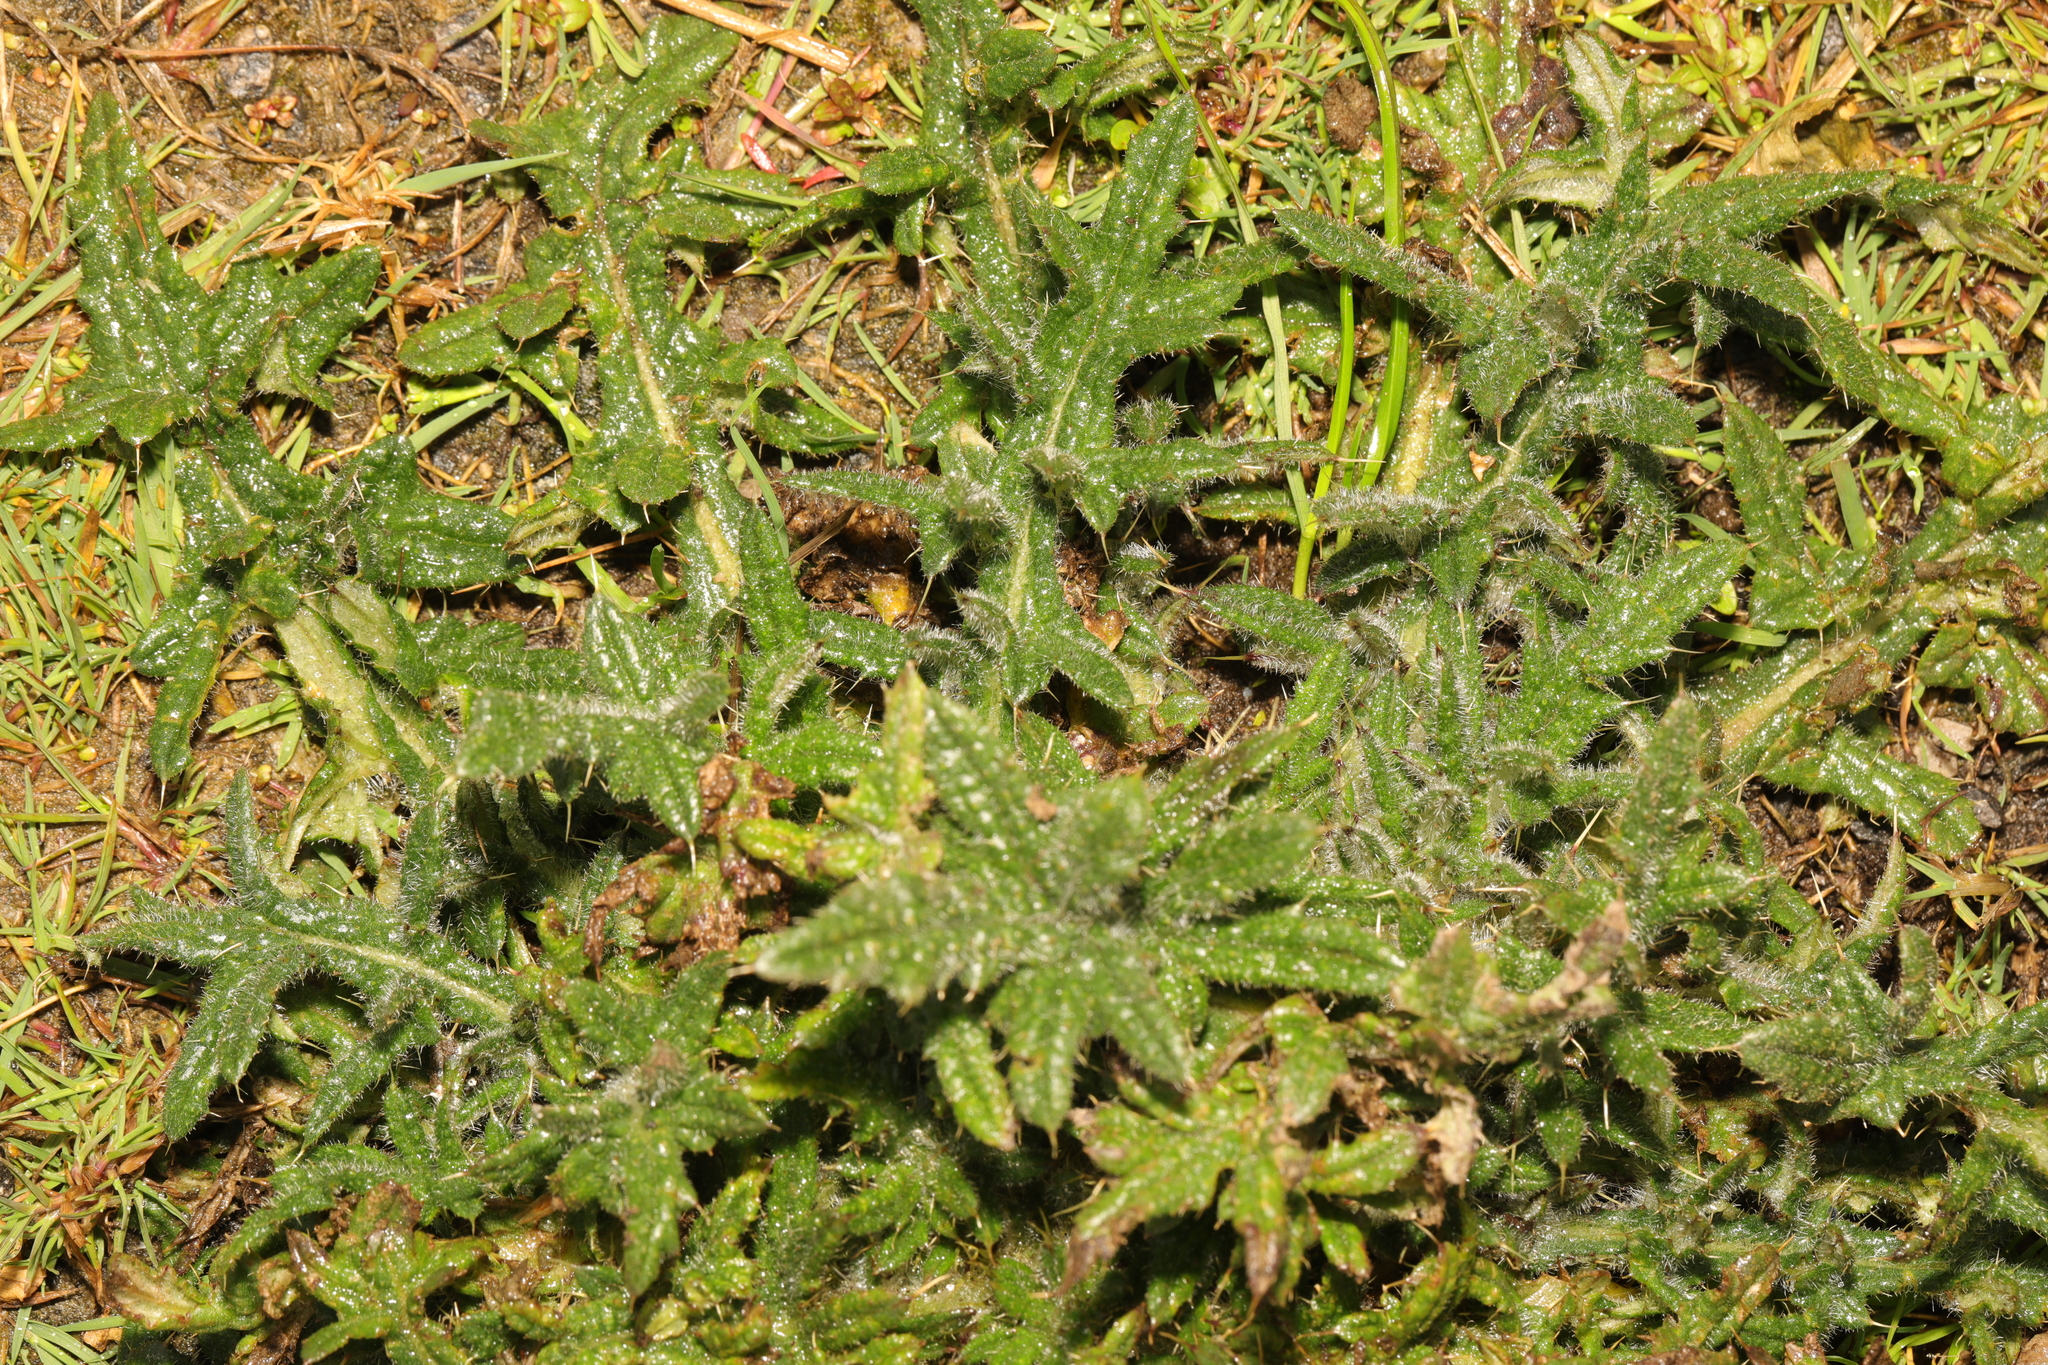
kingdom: Plantae
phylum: Tracheophyta
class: Magnoliopsida
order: Asterales
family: Asteraceae
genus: Cirsium
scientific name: Cirsium vulgare
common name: Bull thistle
